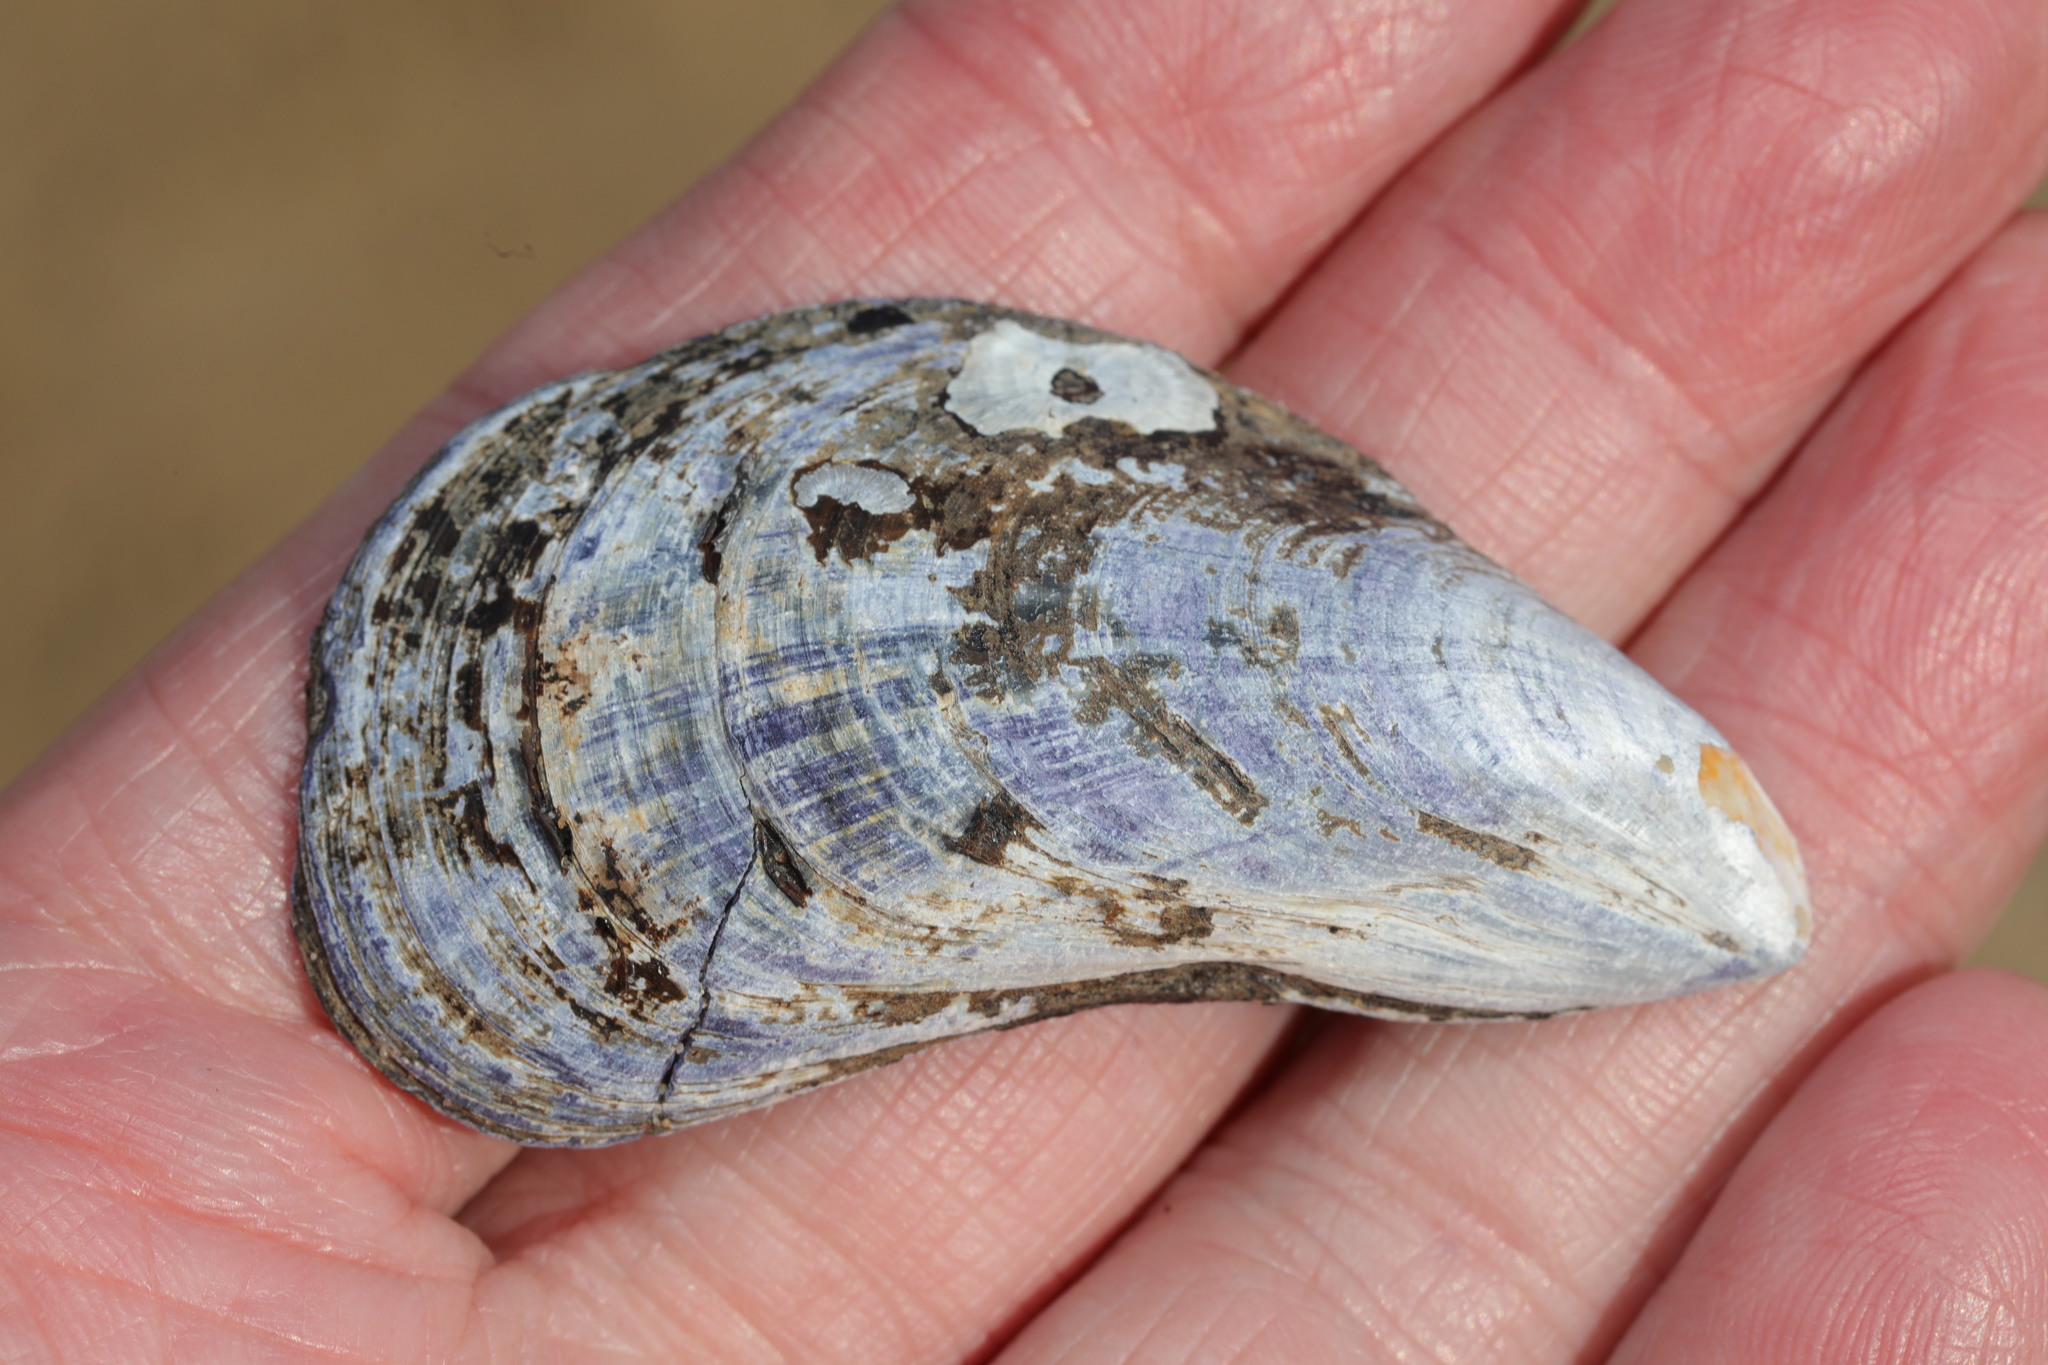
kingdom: Animalia
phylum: Mollusca
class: Bivalvia
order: Mytilida
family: Mytilidae
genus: Mytilus
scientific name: Mytilus edulis
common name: Blue mussel
